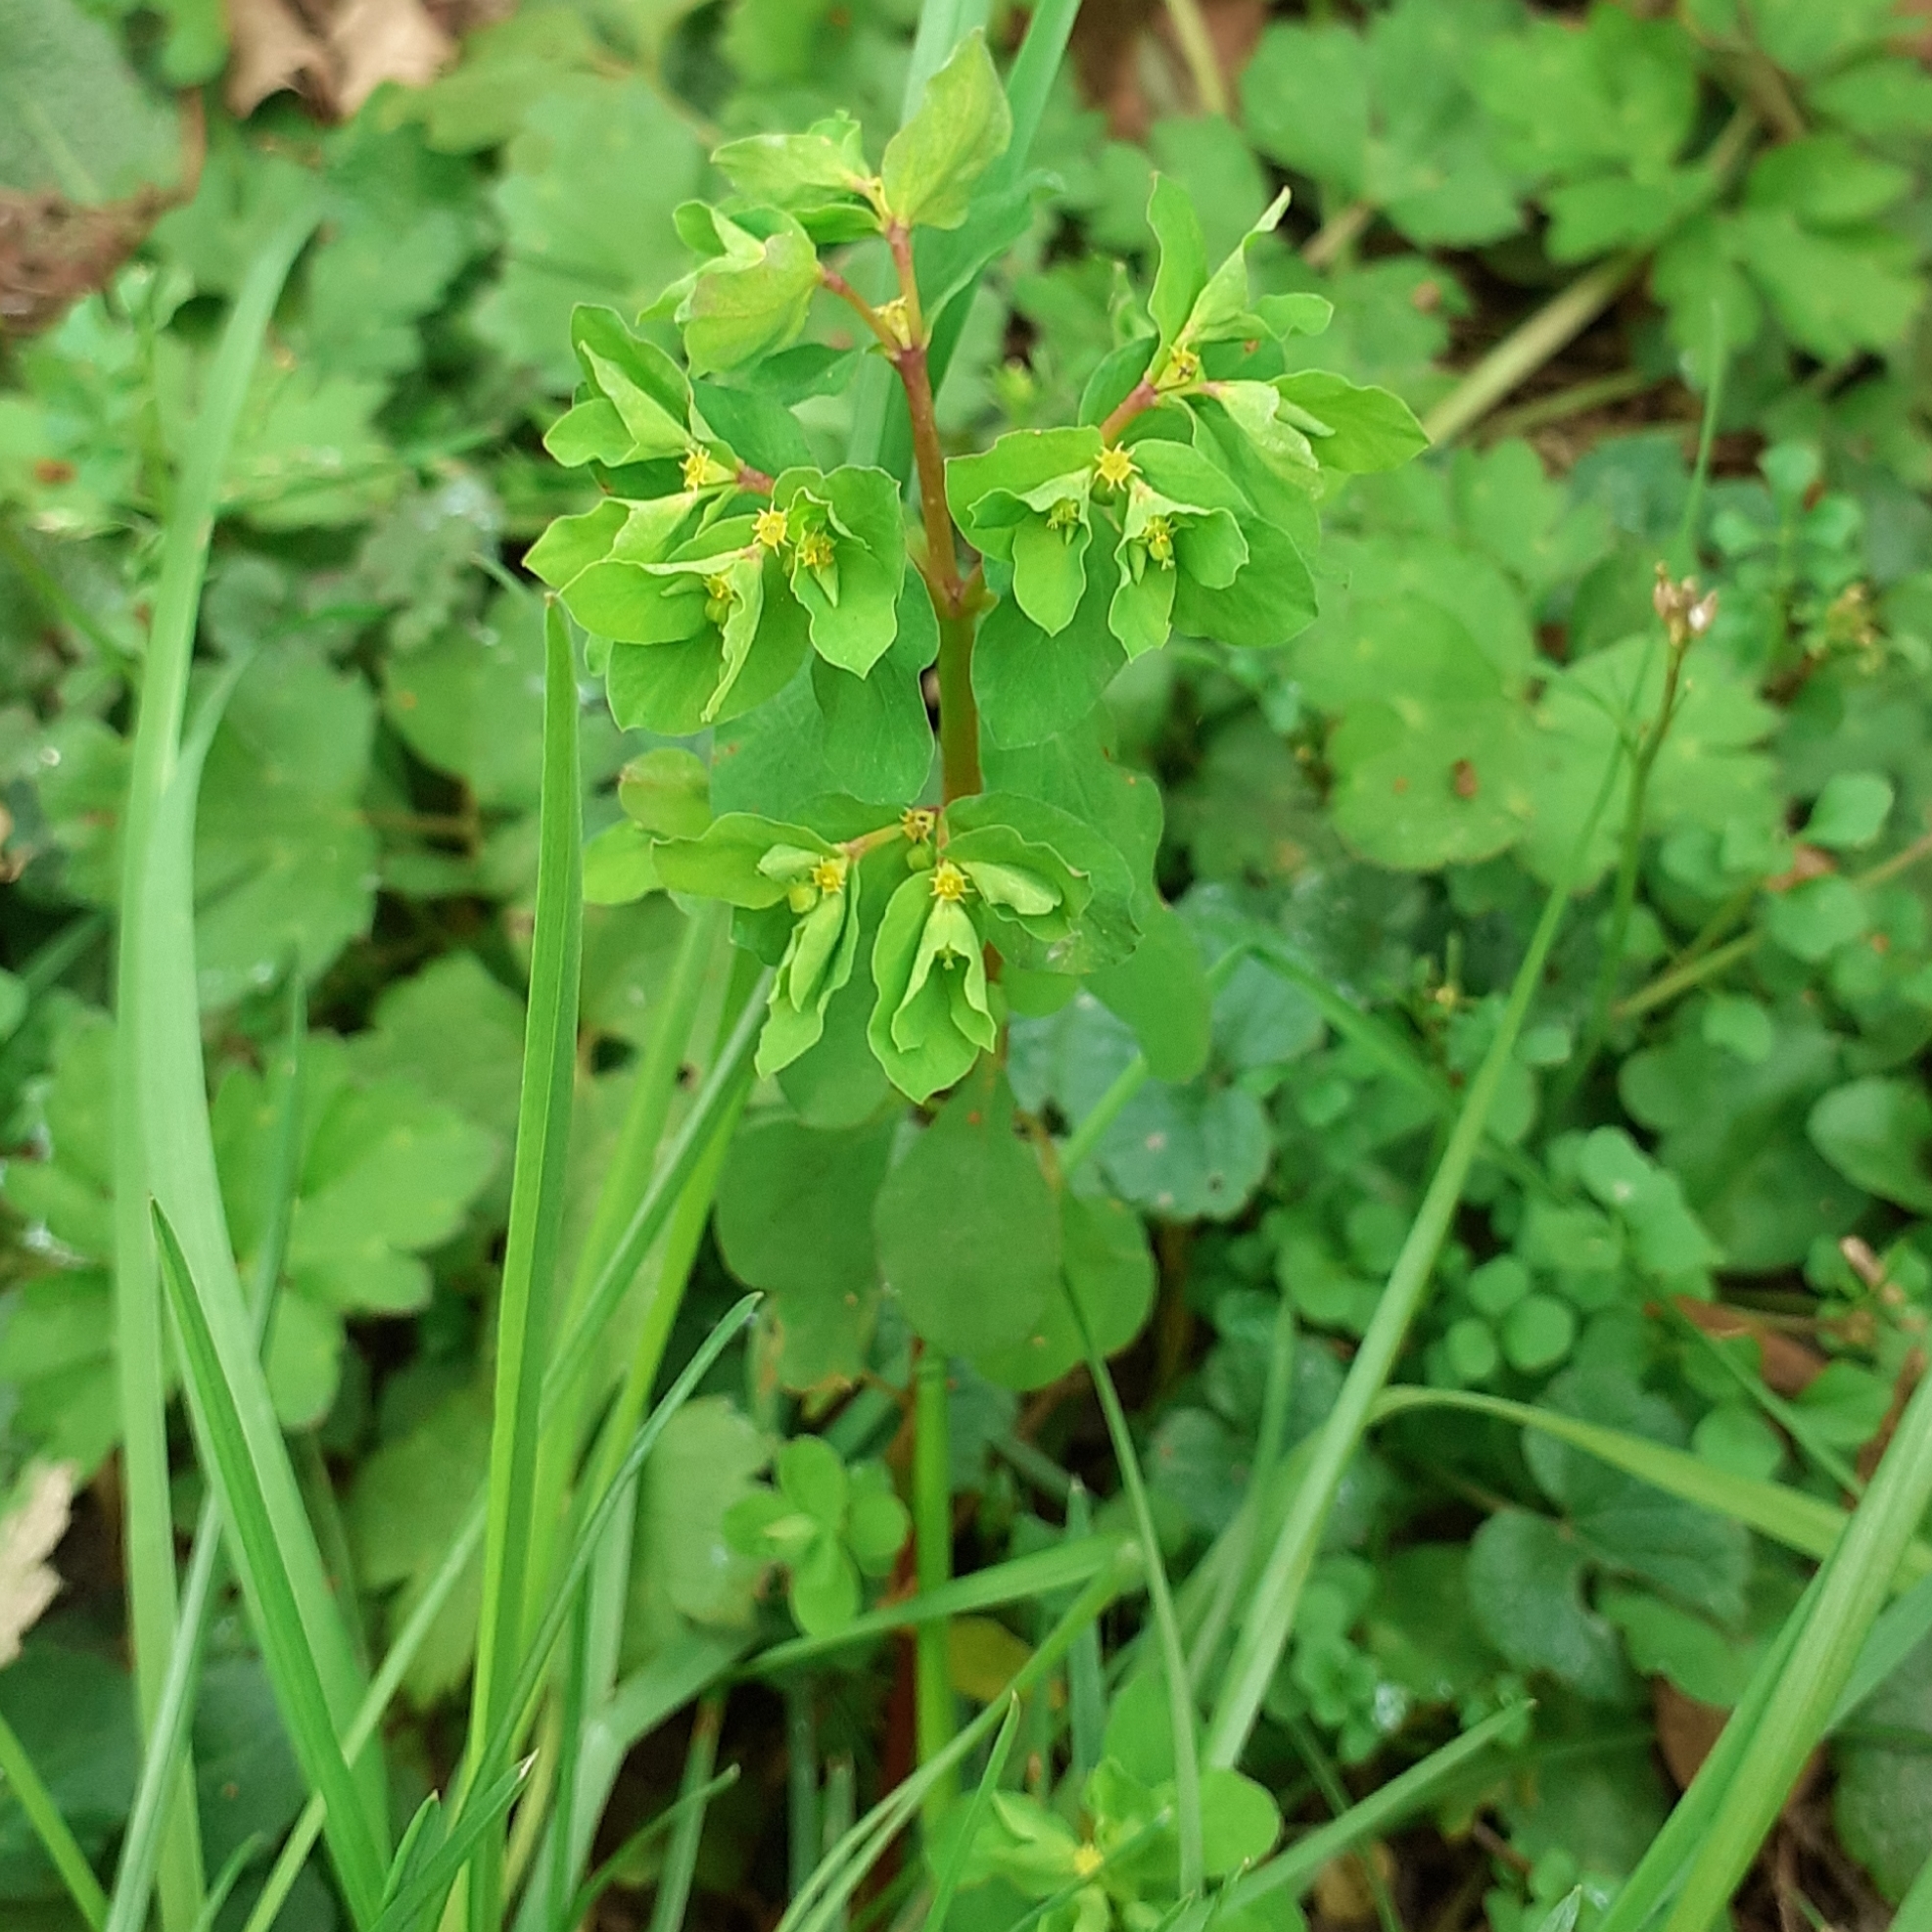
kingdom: Plantae
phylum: Tracheophyta
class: Magnoliopsida
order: Malpighiales
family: Euphorbiaceae
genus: Euphorbia
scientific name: Euphorbia peplus
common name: Petty spurge
